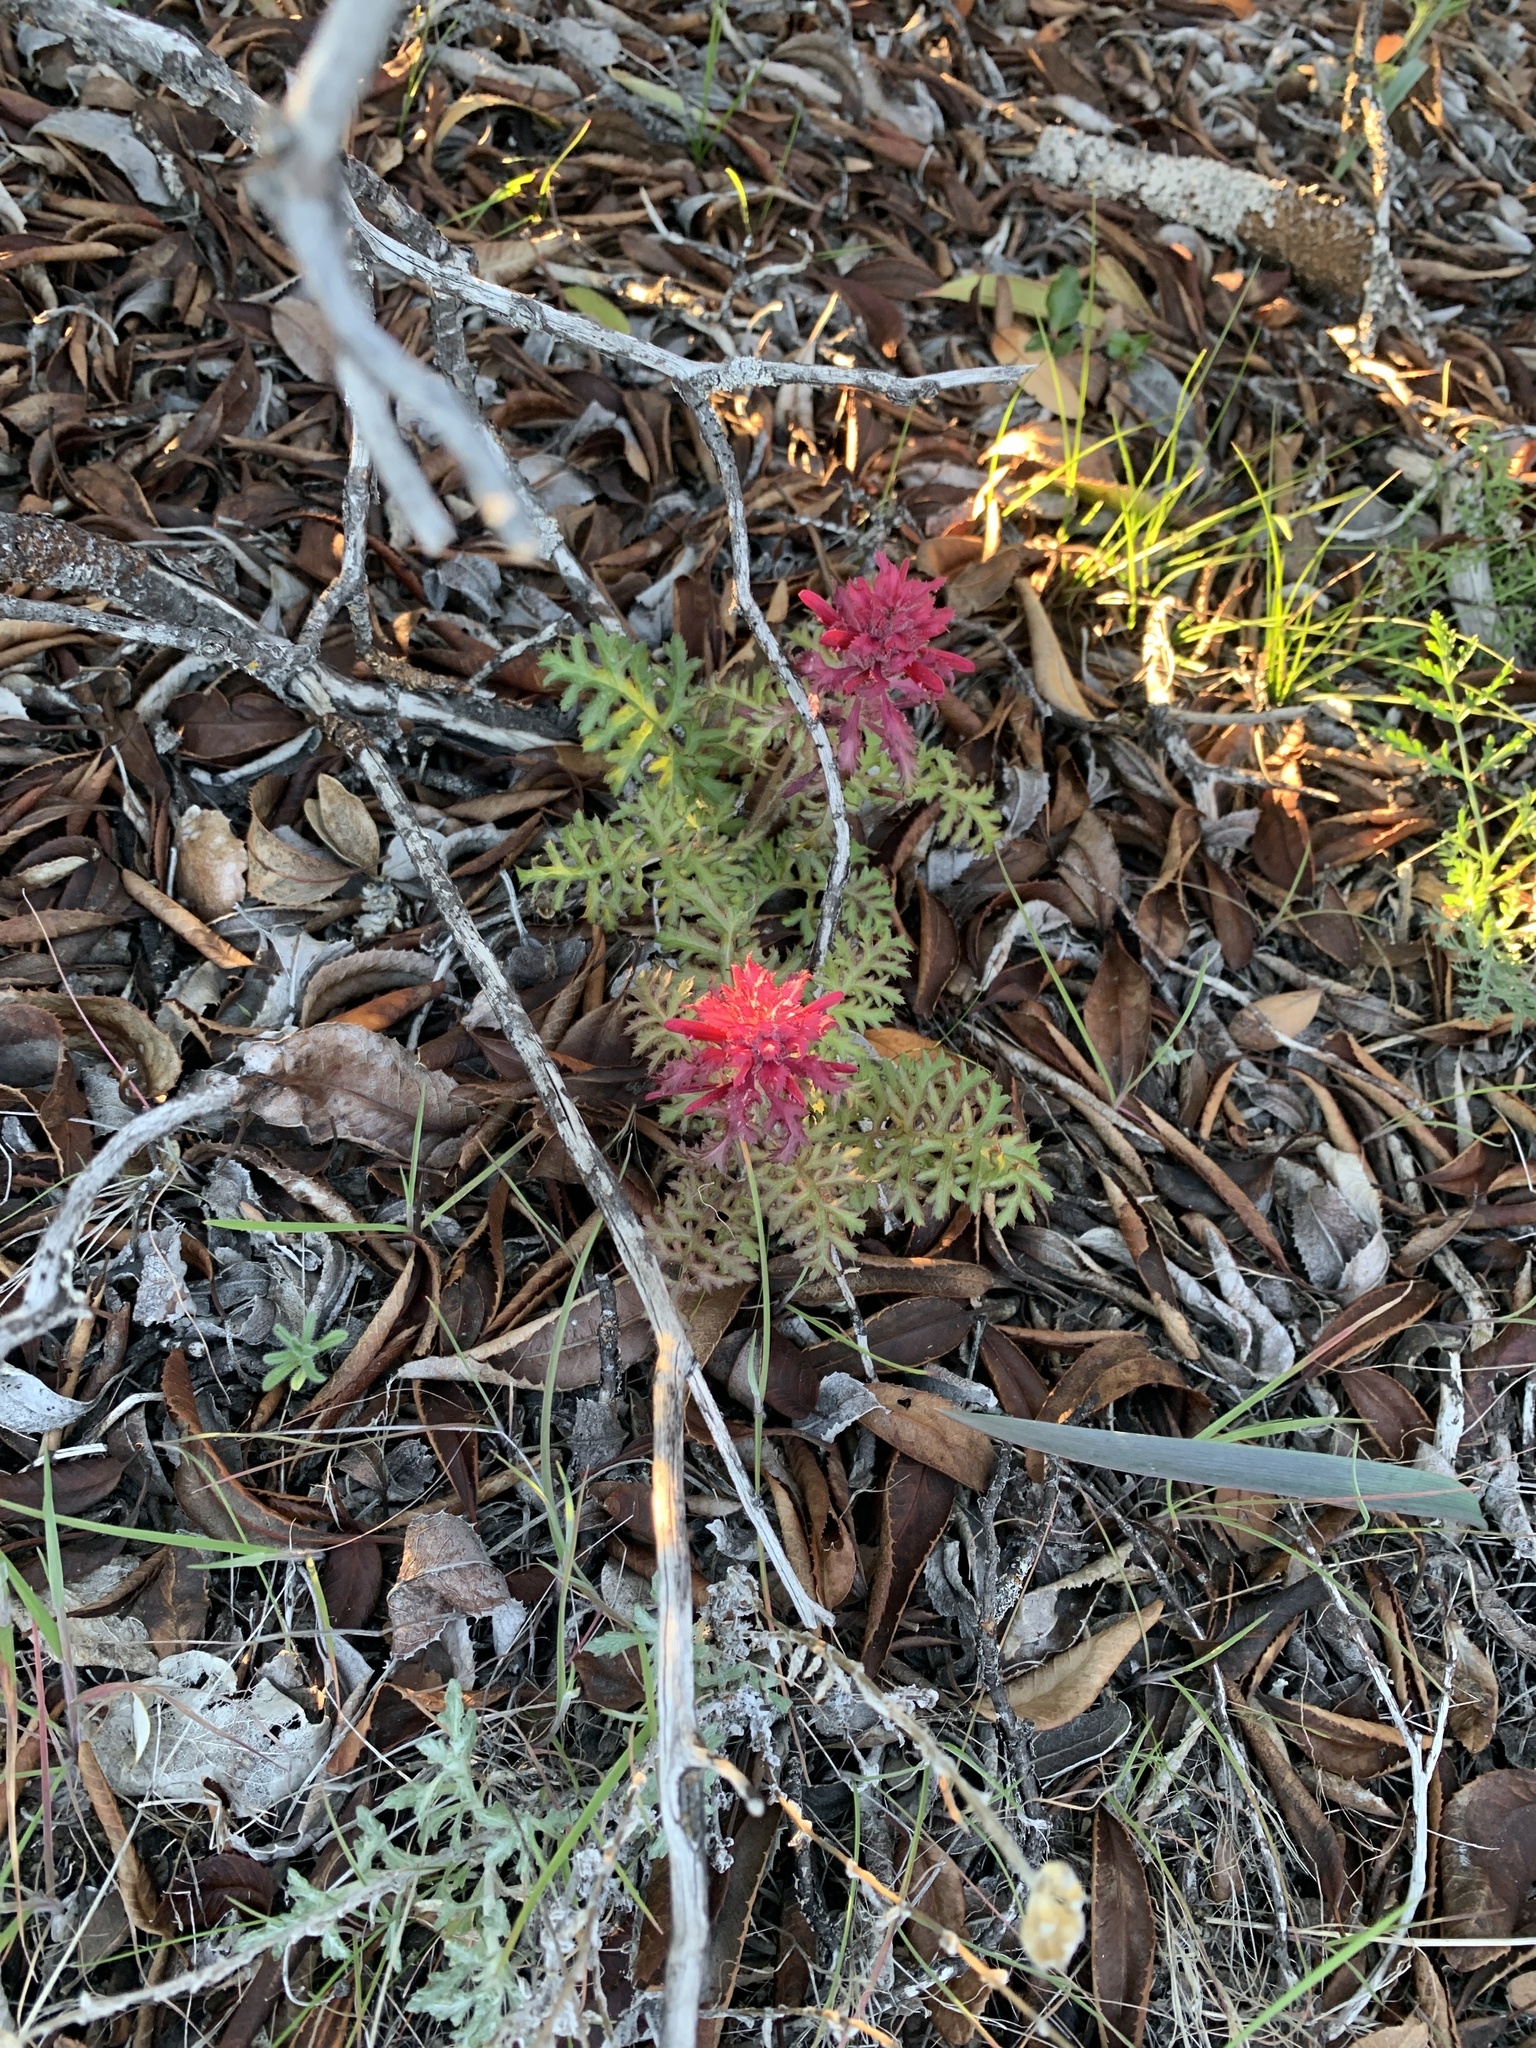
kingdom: Plantae
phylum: Tracheophyta
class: Magnoliopsida
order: Lamiales
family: Orobanchaceae
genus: Pedicularis
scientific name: Pedicularis densiflora
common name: Indian warrior
